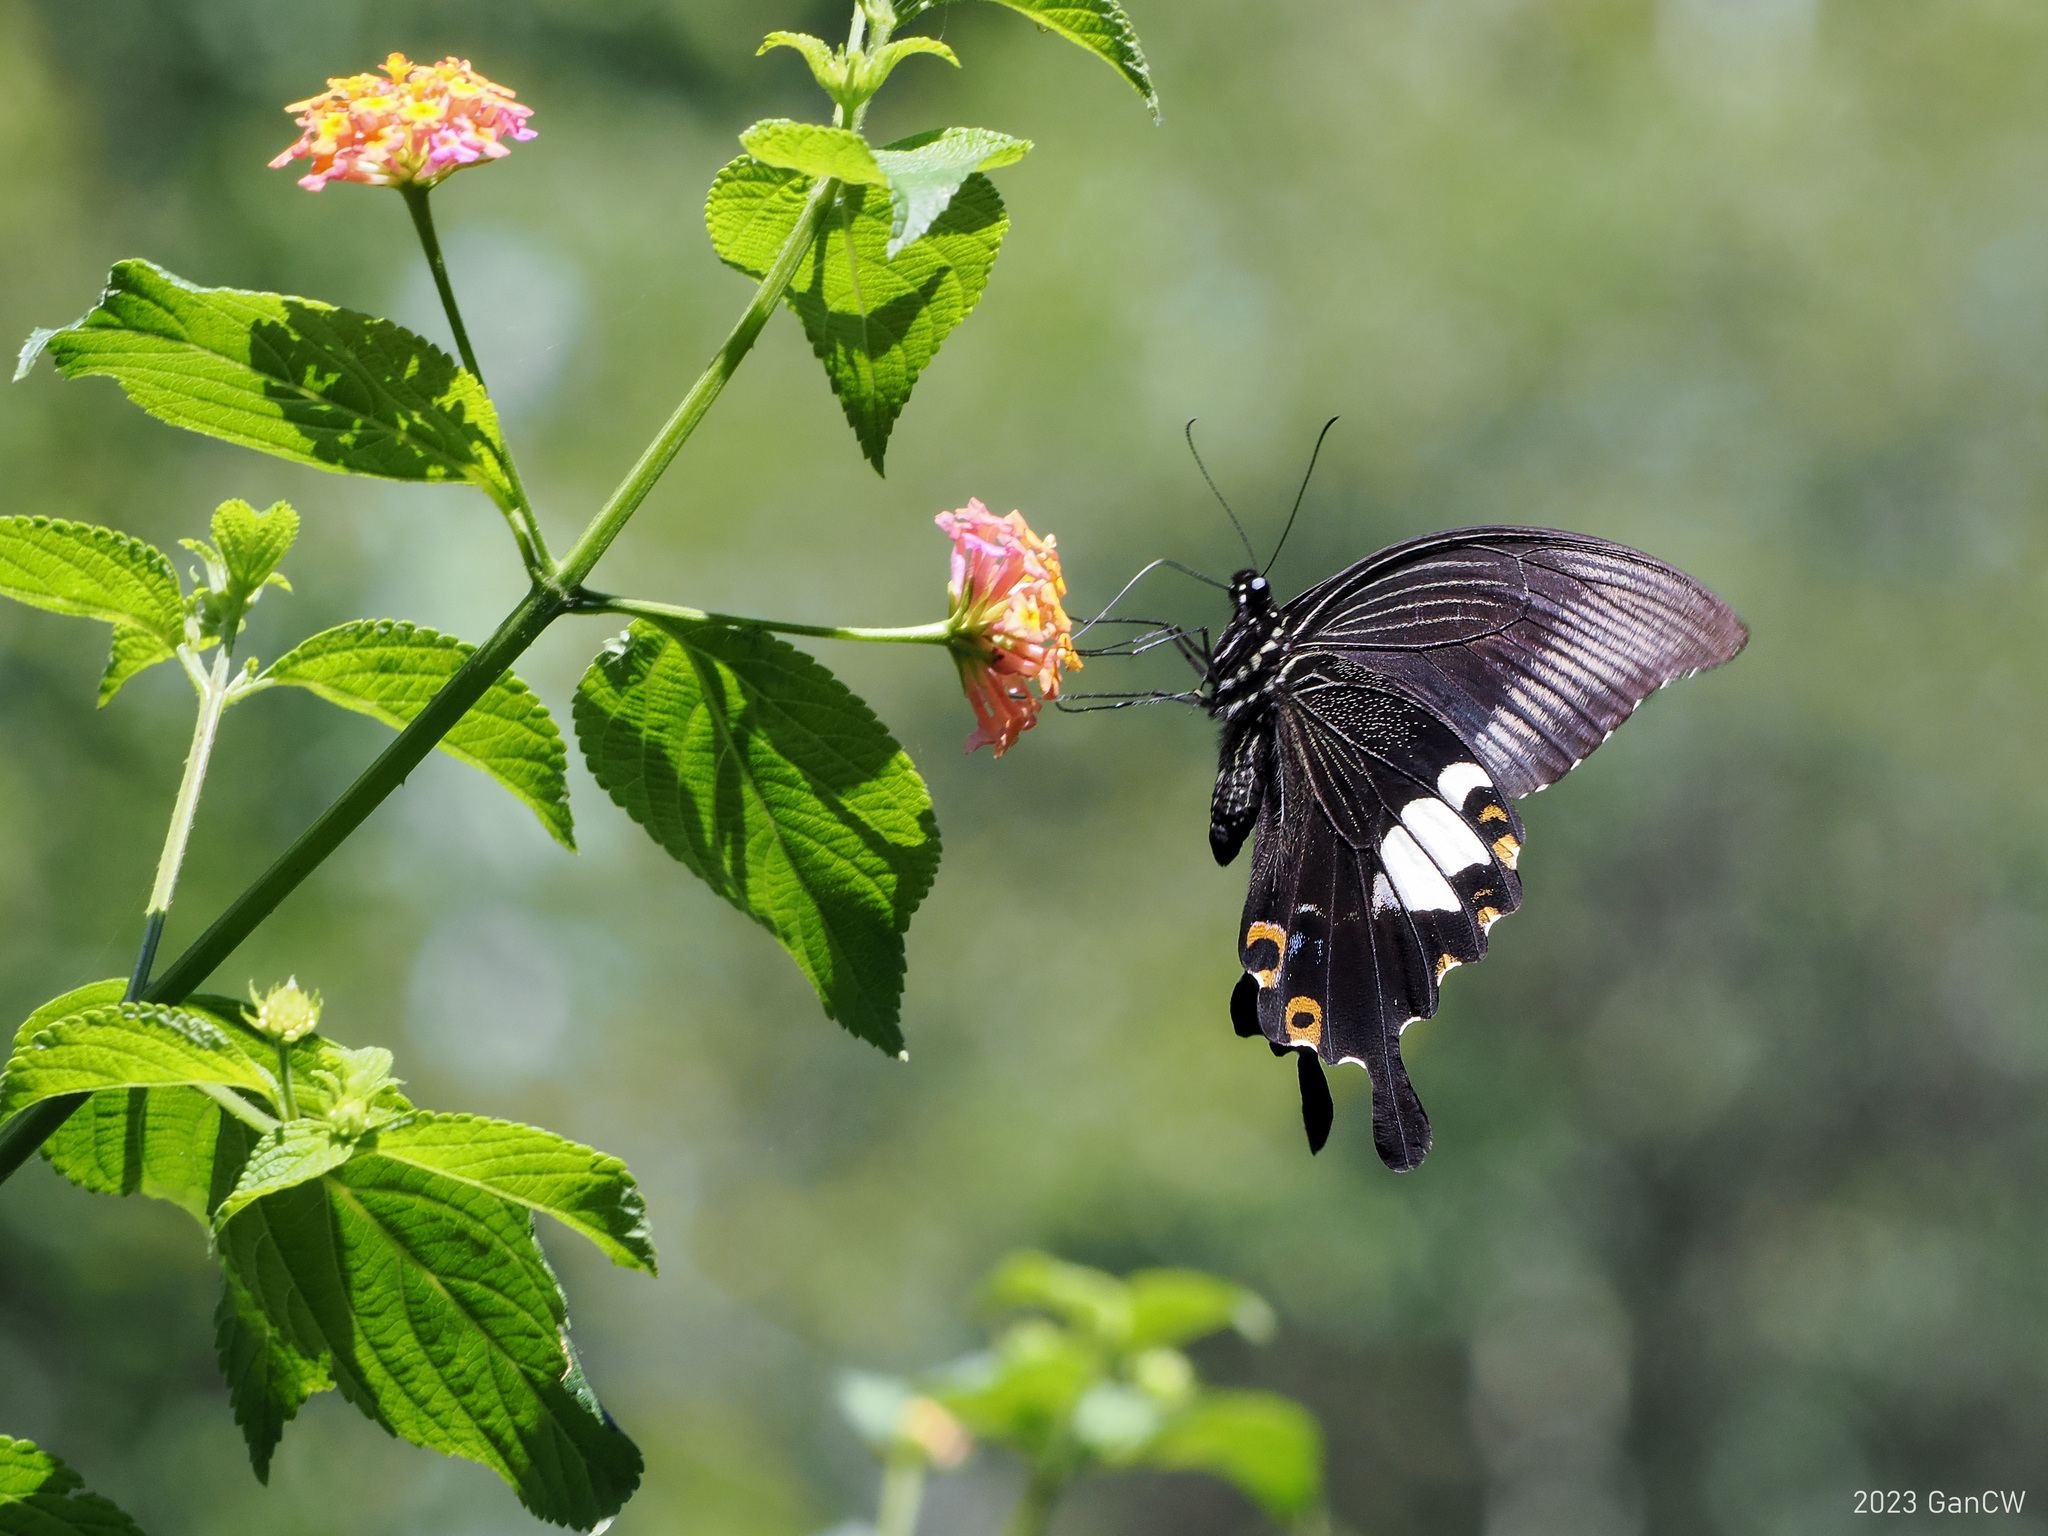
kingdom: Animalia
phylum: Arthropoda
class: Insecta
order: Lepidoptera
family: Papilionidae
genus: Papilio
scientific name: Papilio sataspes
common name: Sulawesi red helen
